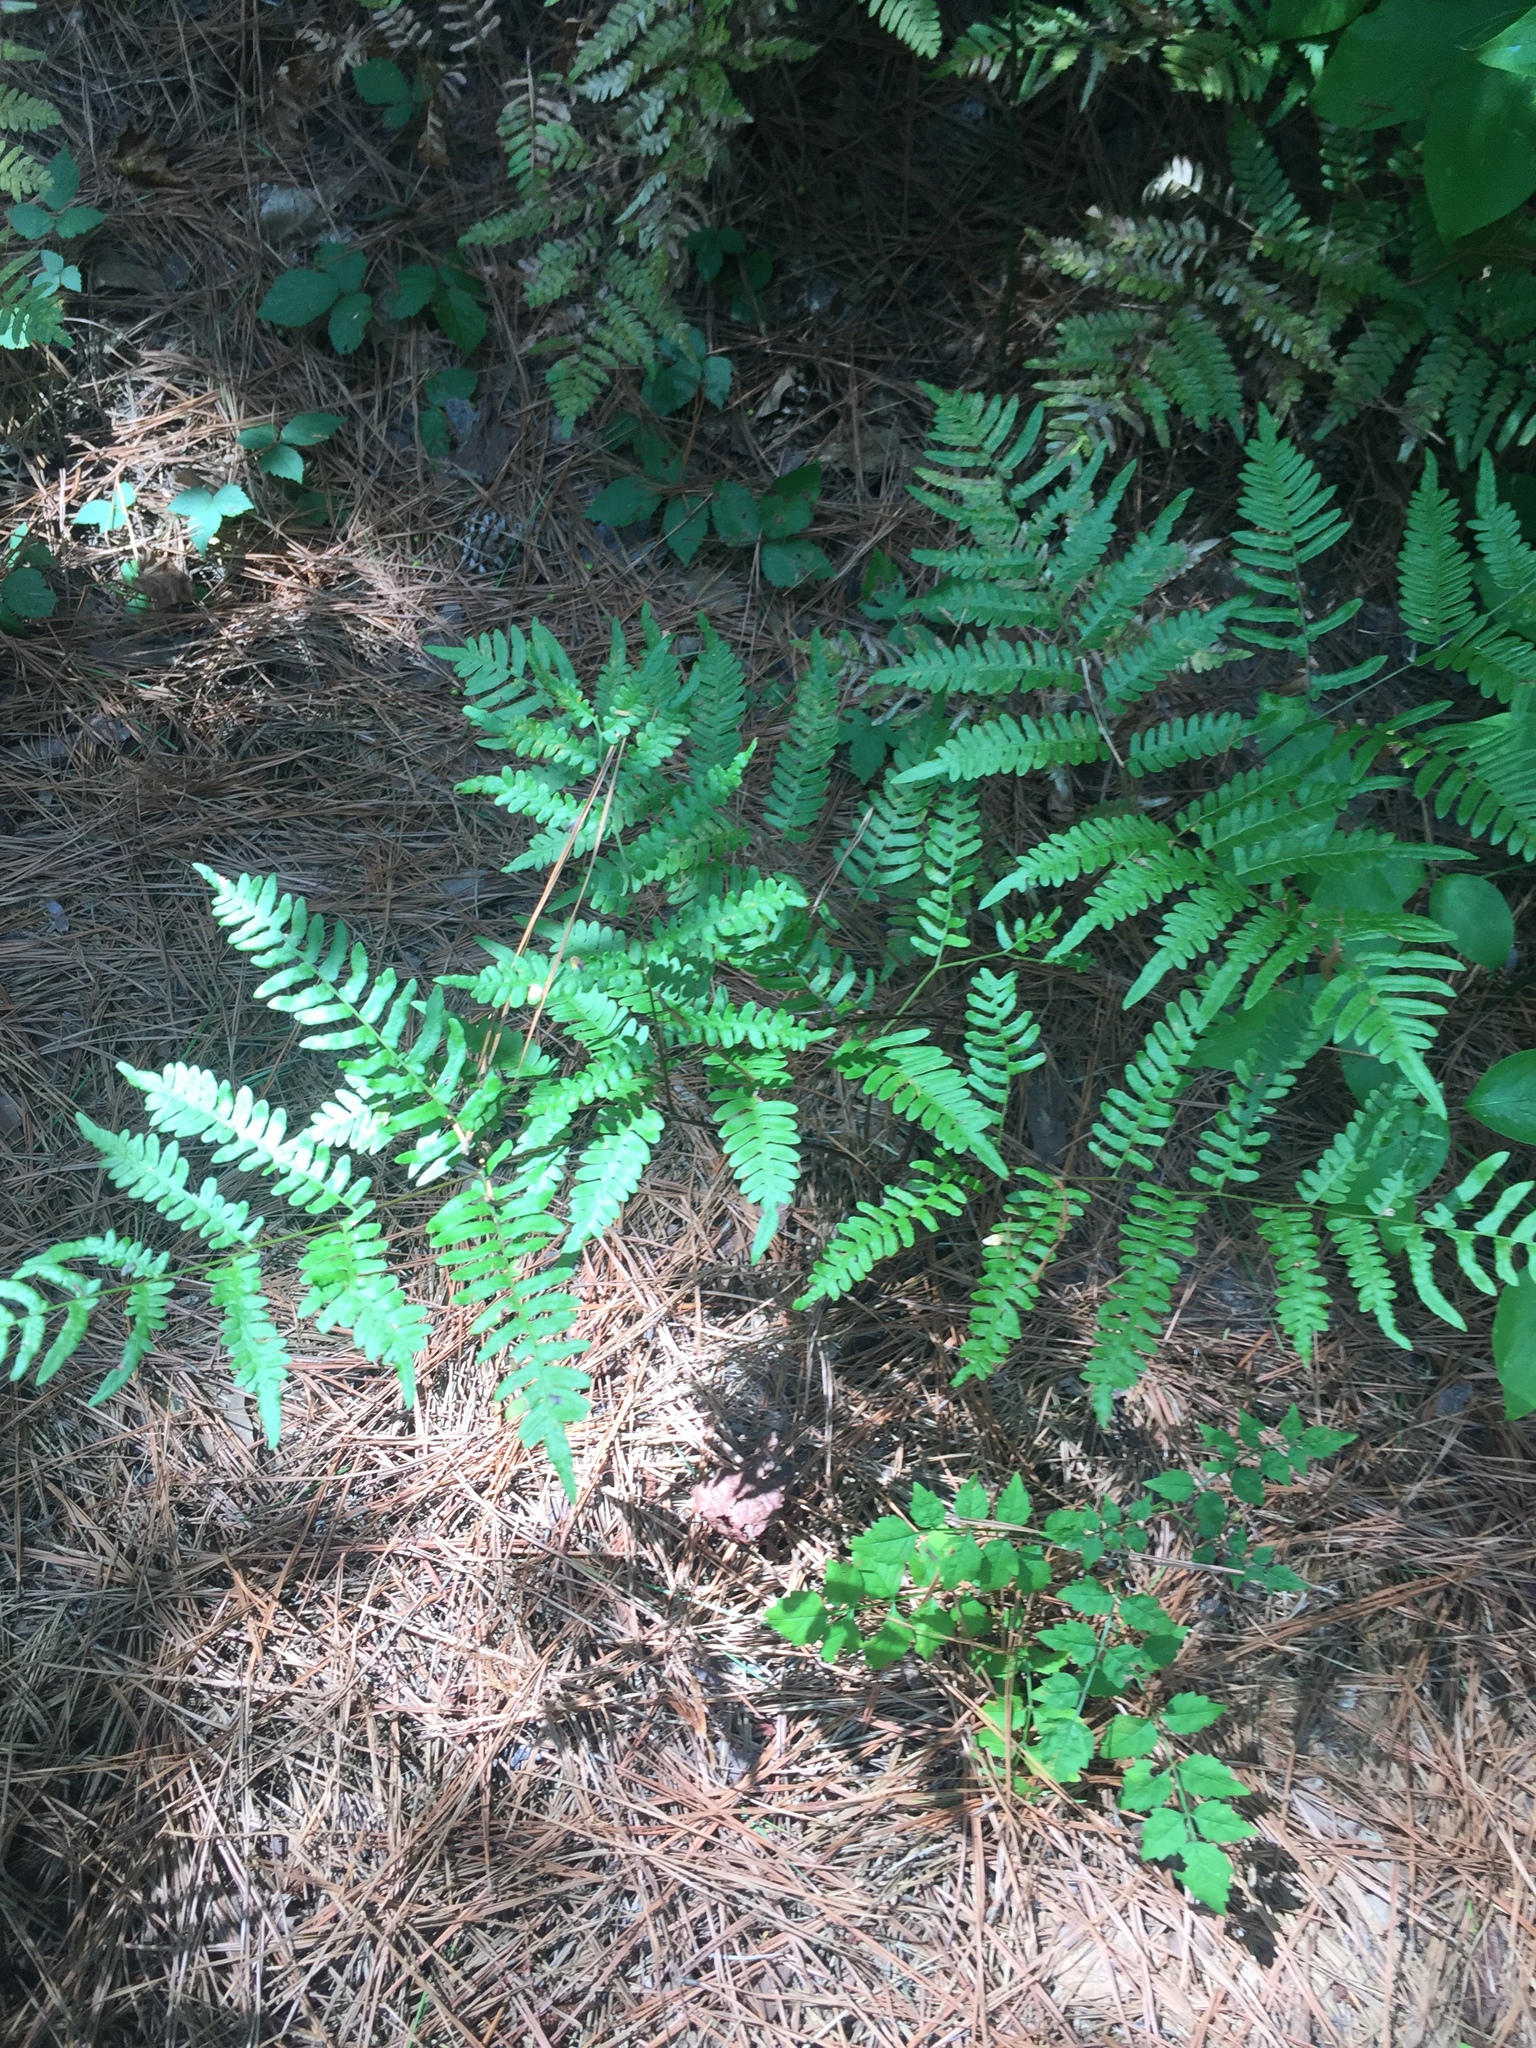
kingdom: Plantae
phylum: Tracheophyta
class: Polypodiopsida
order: Polypodiales
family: Dennstaedtiaceae
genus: Pteridium
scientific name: Pteridium aquilinum
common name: Bracken
